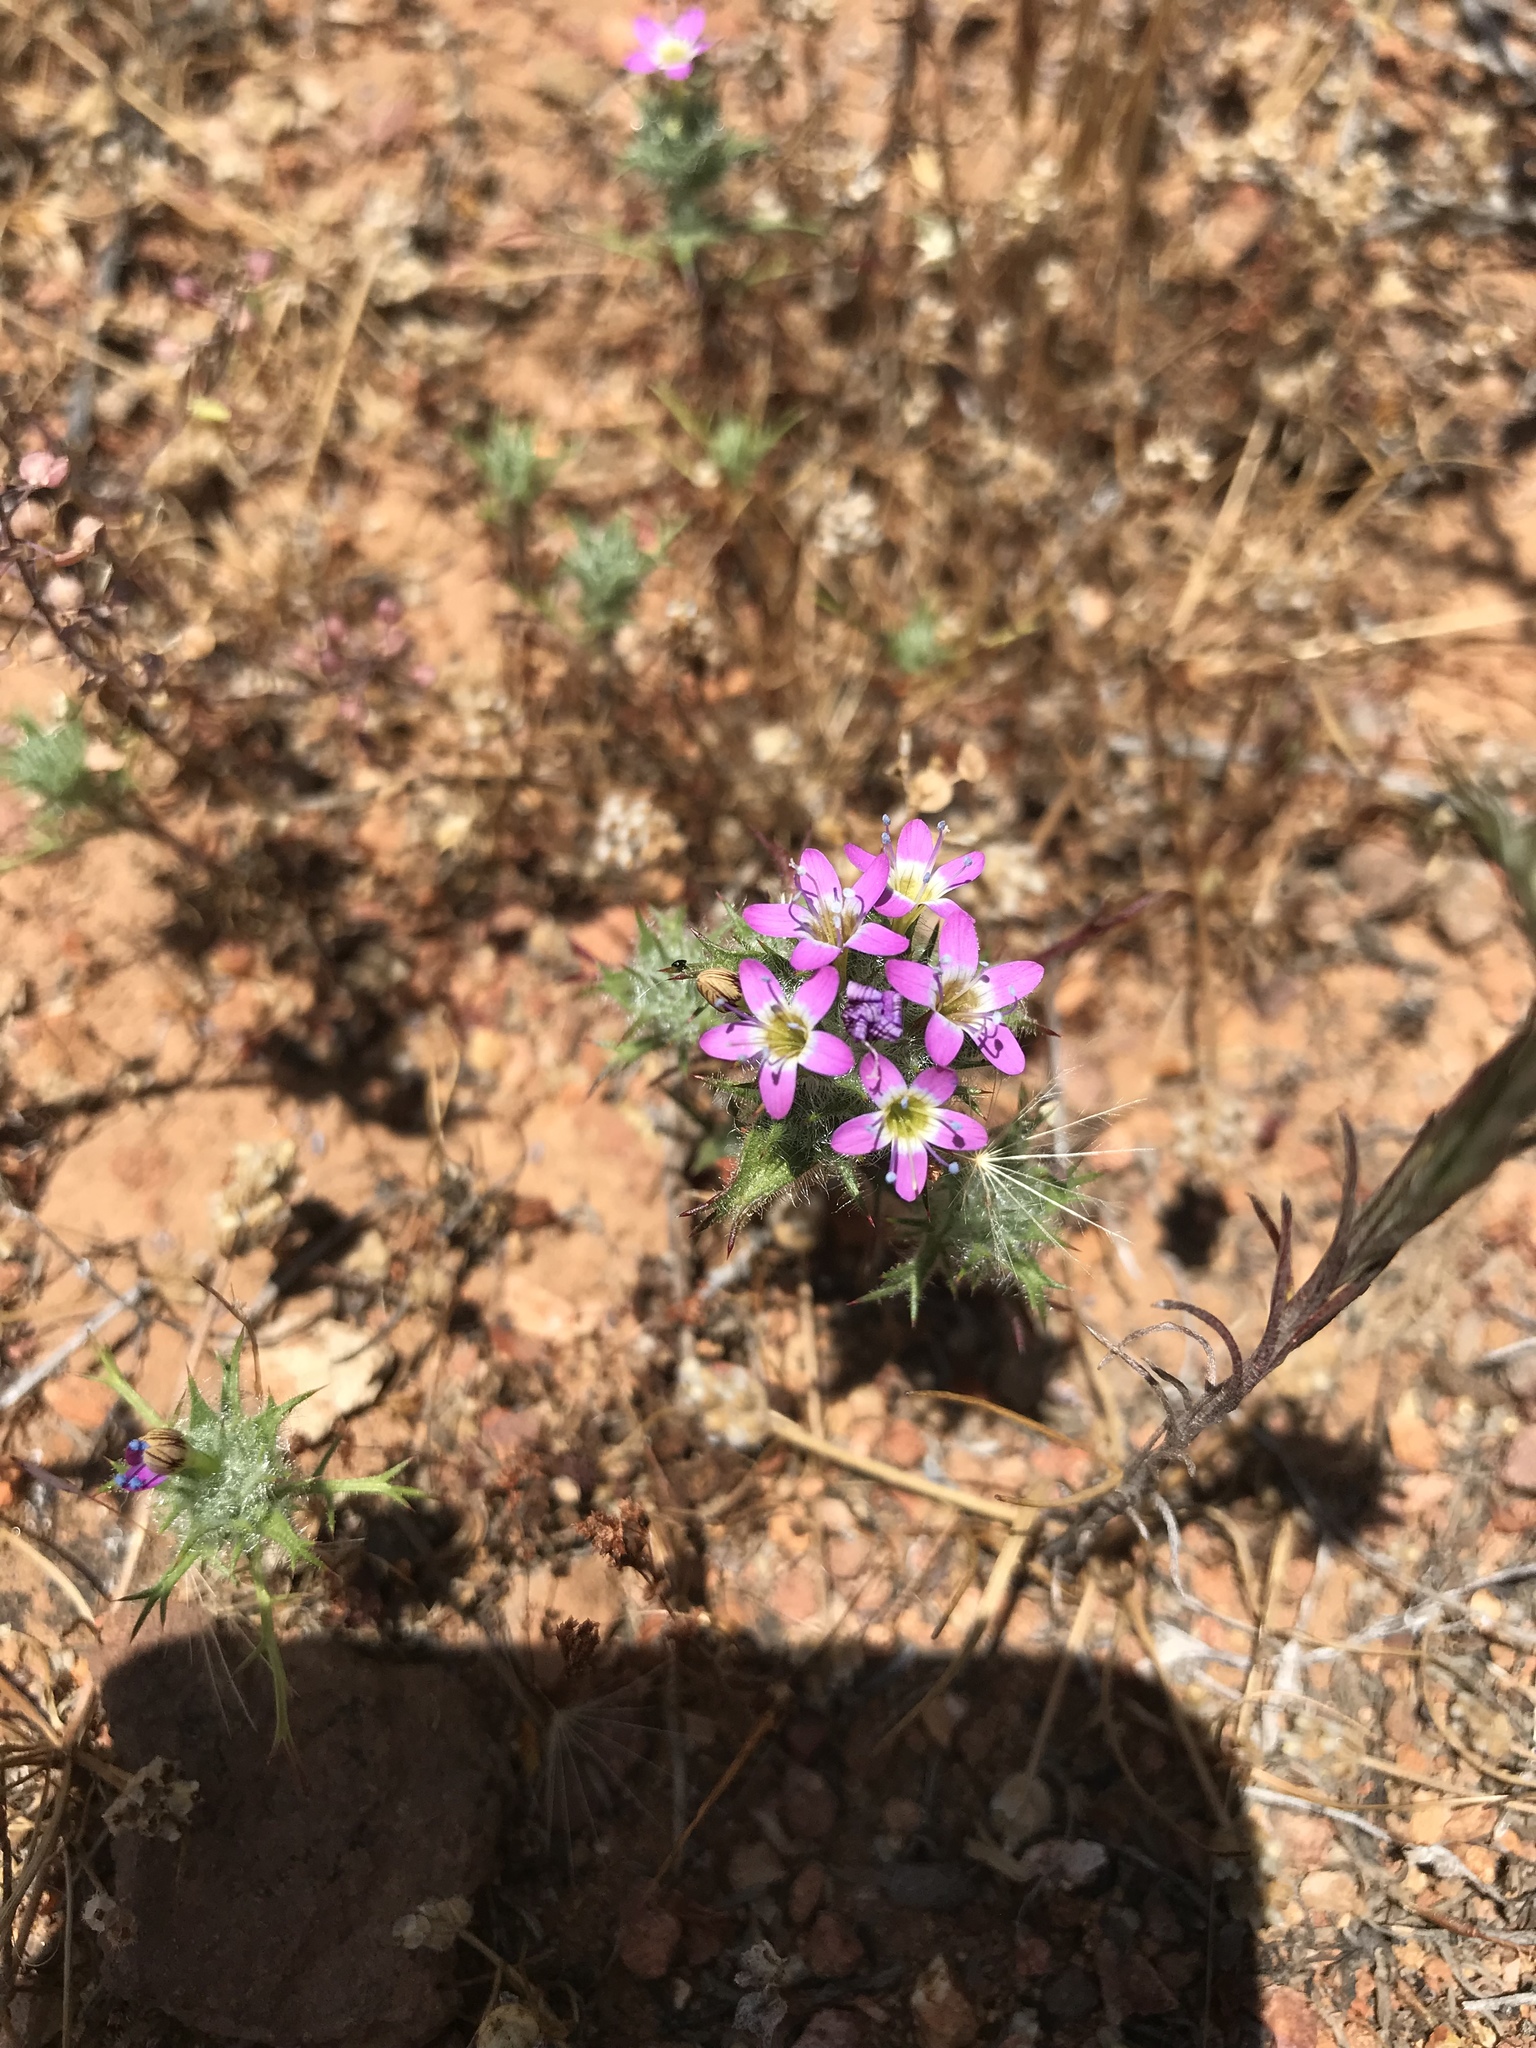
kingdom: Plantae
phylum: Tracheophyta
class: Magnoliopsida
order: Ericales
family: Polemoniaceae
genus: Navarretia
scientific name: Navarretia hamata
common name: Hooked navarretia
